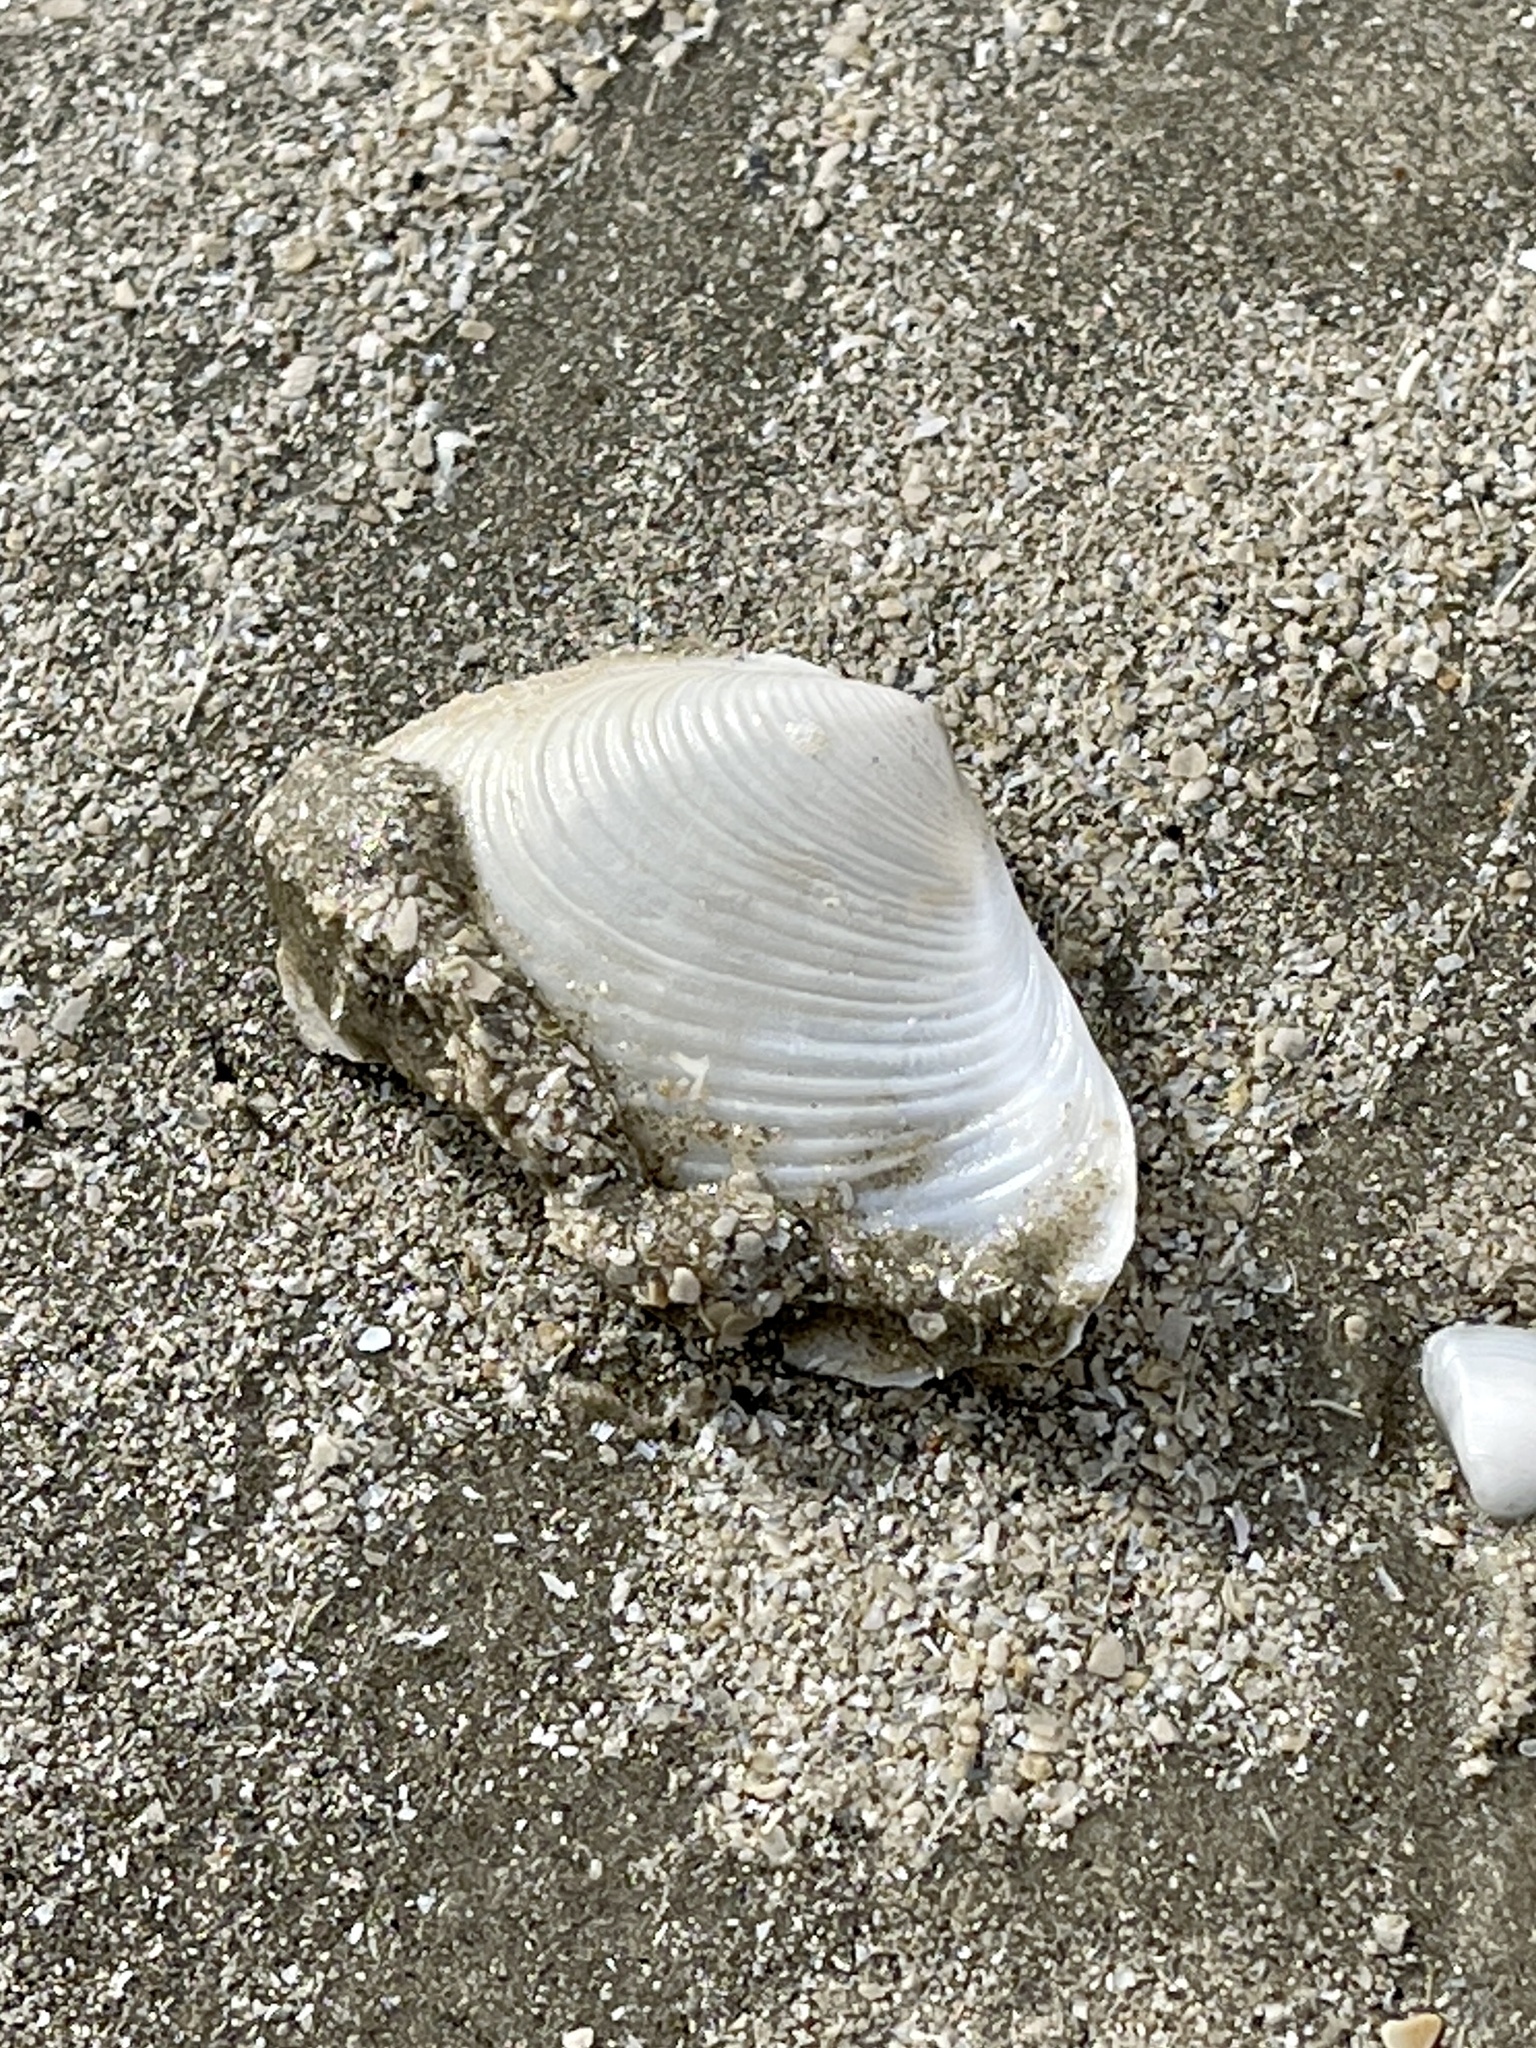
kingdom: Animalia
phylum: Mollusca
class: Bivalvia
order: Venerida
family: Anatinellidae
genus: Raeta
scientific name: Raeta plicatella
